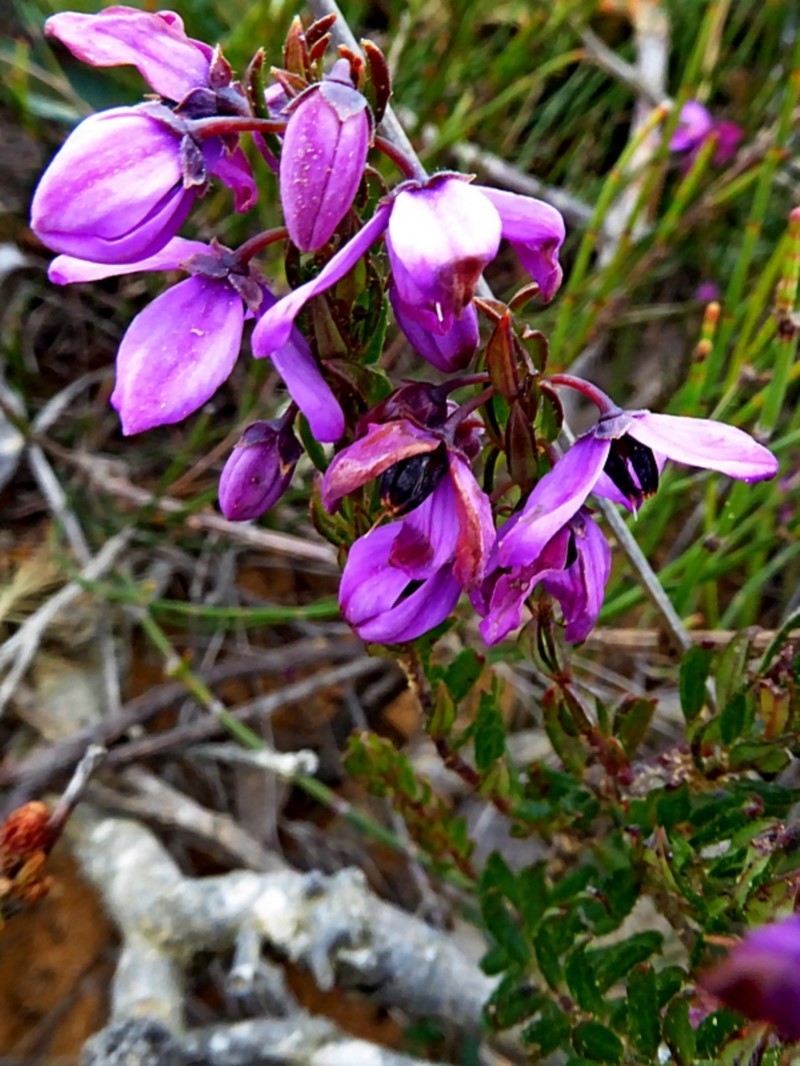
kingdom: Plantae
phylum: Tracheophyta
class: Magnoliopsida
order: Oxalidales
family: Elaeocarpaceae
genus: Tetratheca
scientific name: Tetratheca pilosa
